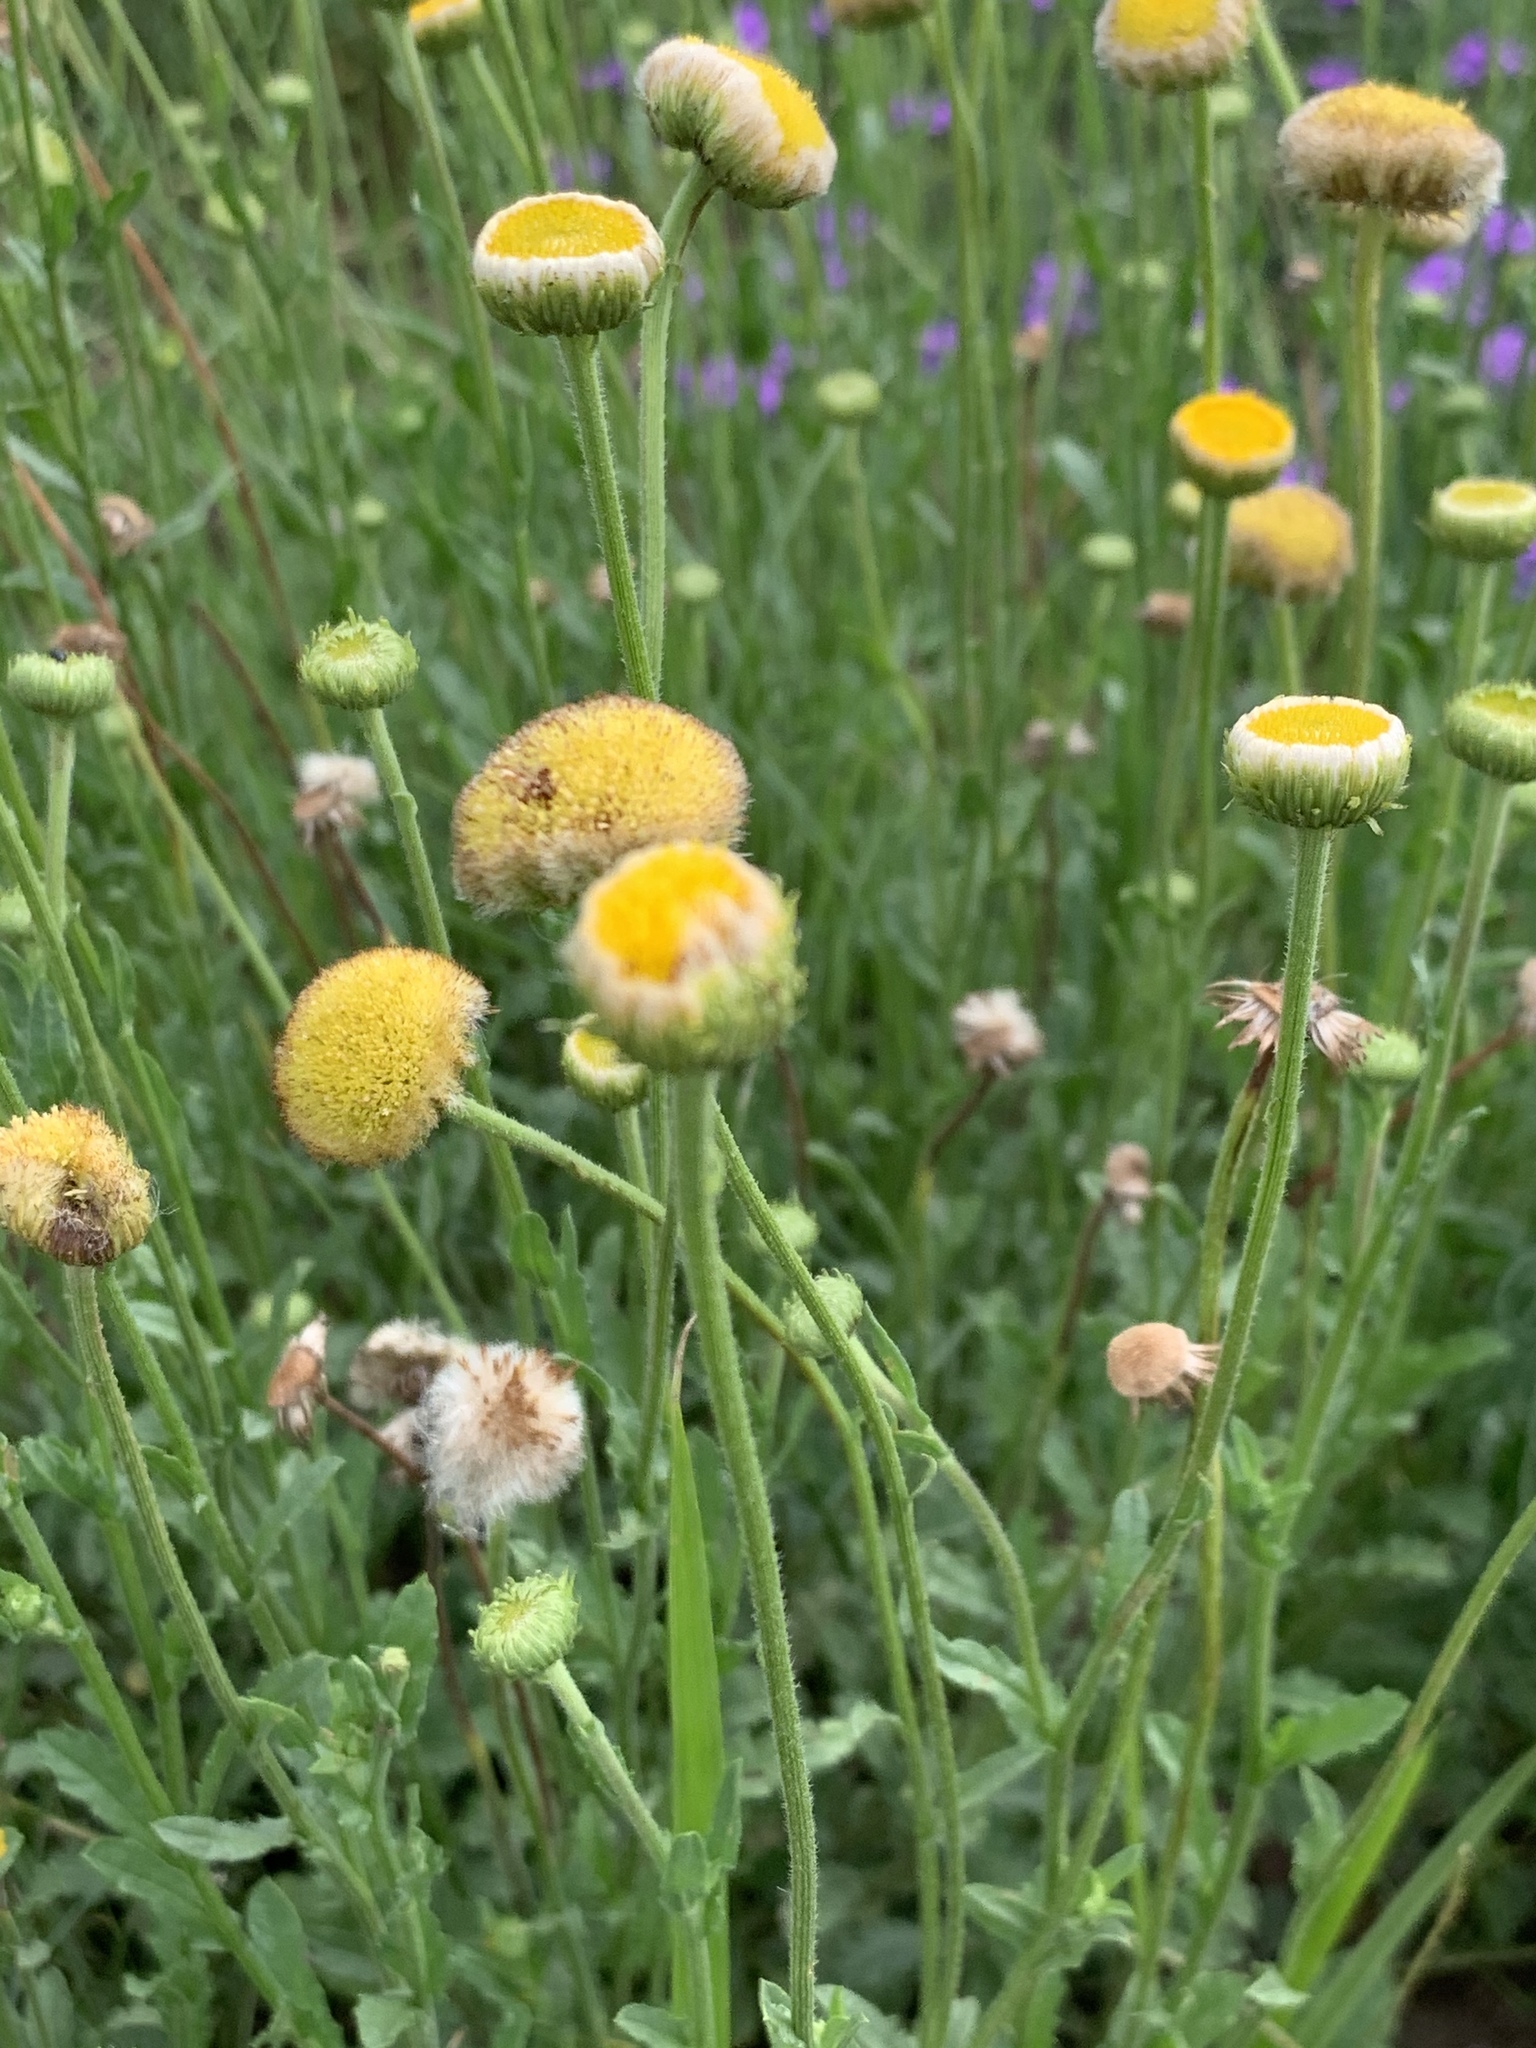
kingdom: Plantae
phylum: Tracheophyta
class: Magnoliopsida
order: Asterales
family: Asteraceae
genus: Nidorella
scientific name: Nidorella podocephala
